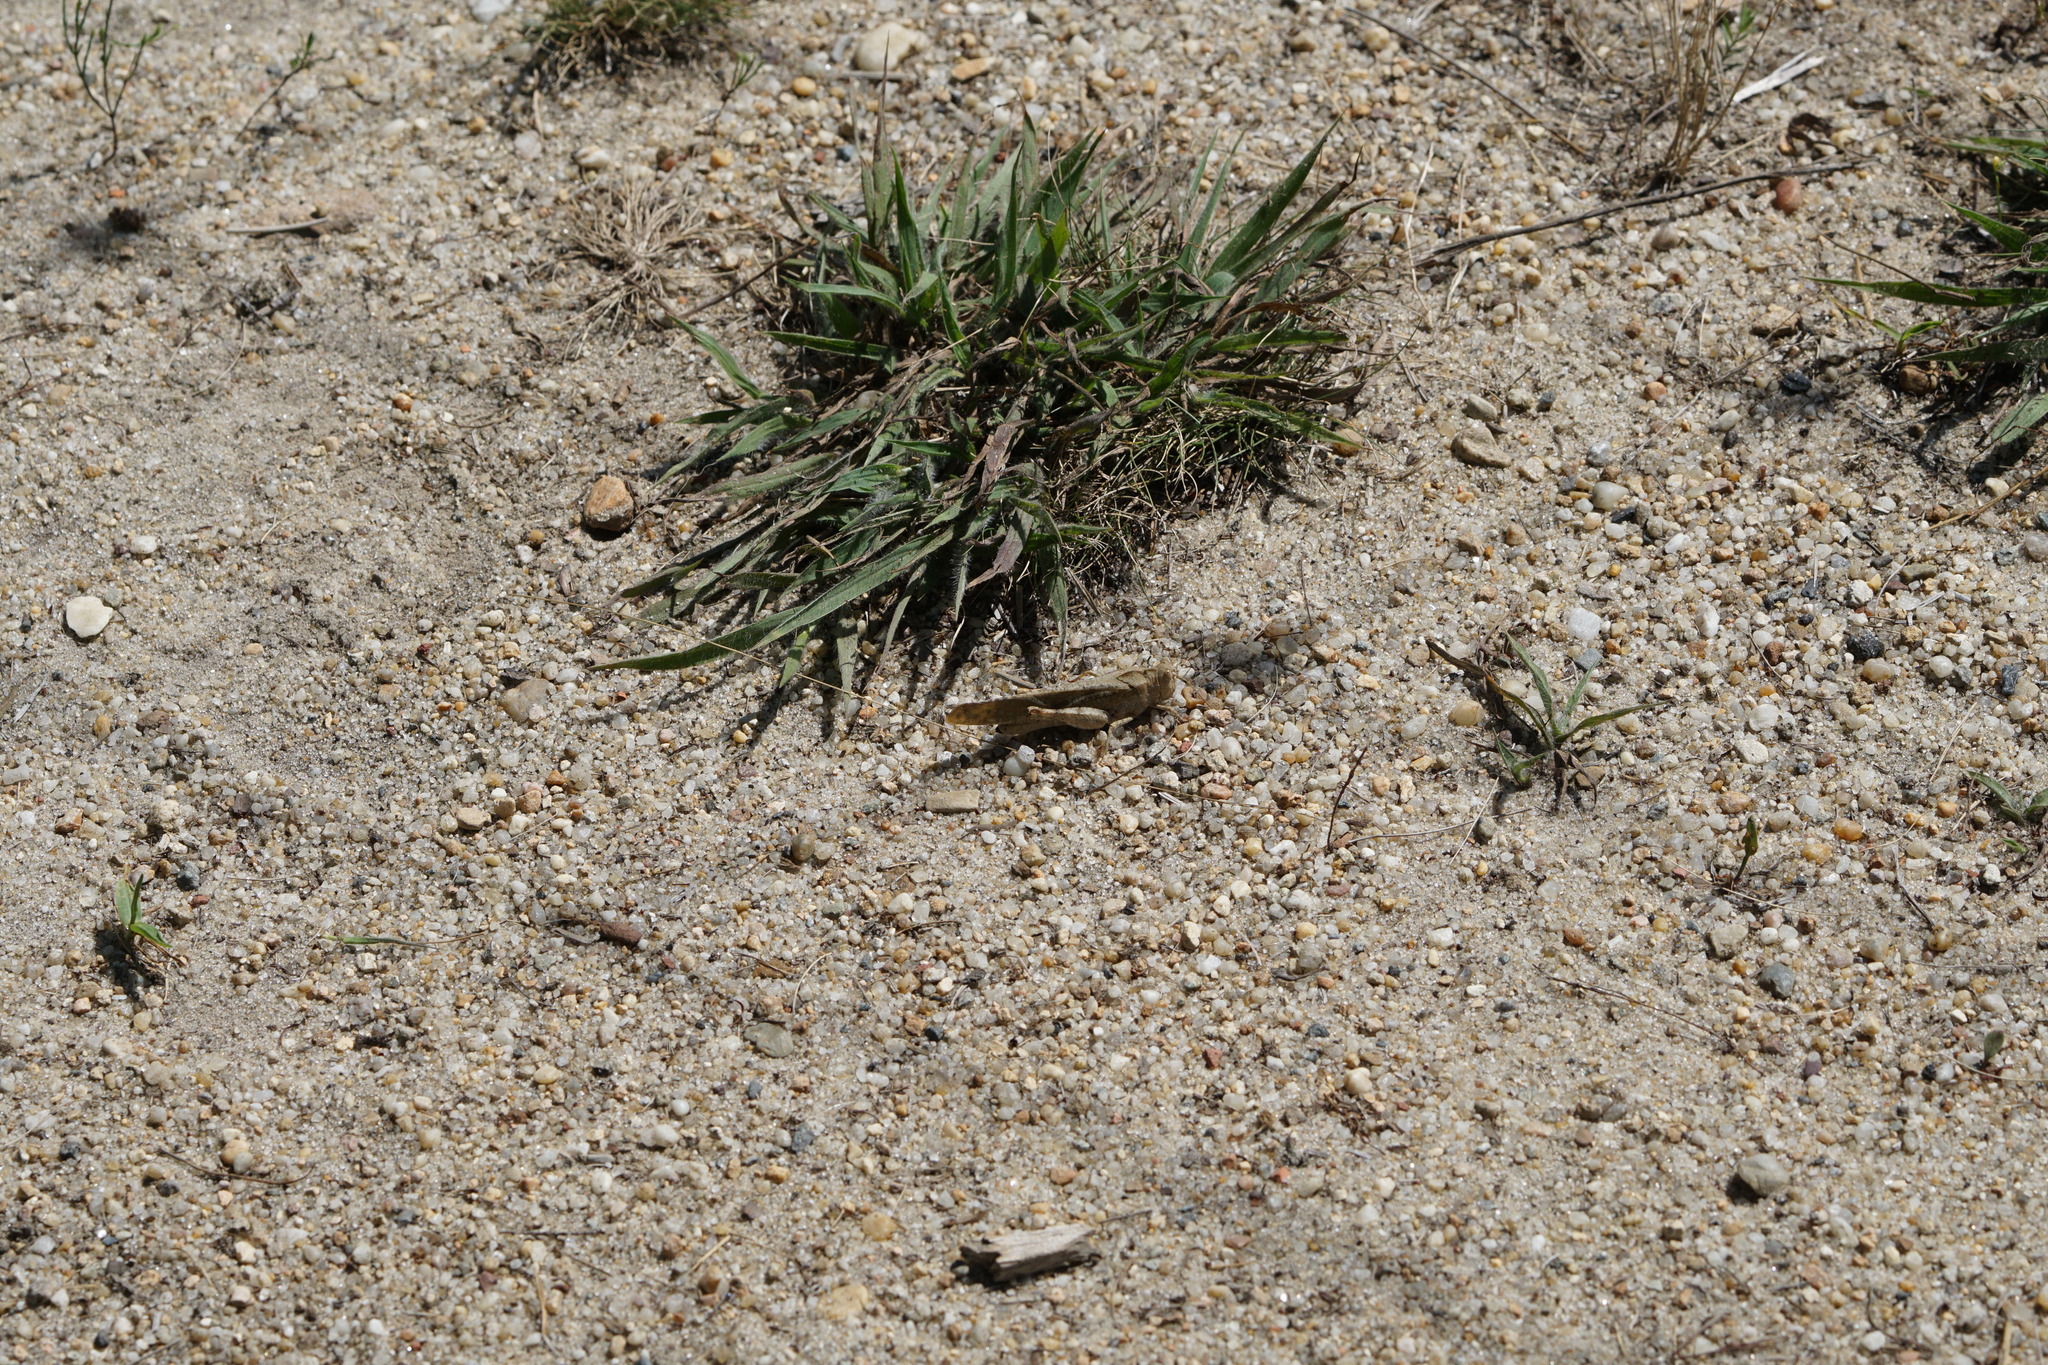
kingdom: Animalia
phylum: Arthropoda
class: Insecta
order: Orthoptera
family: Acrididae
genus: Dissosteira
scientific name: Dissosteira carolina
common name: Carolina grasshopper
